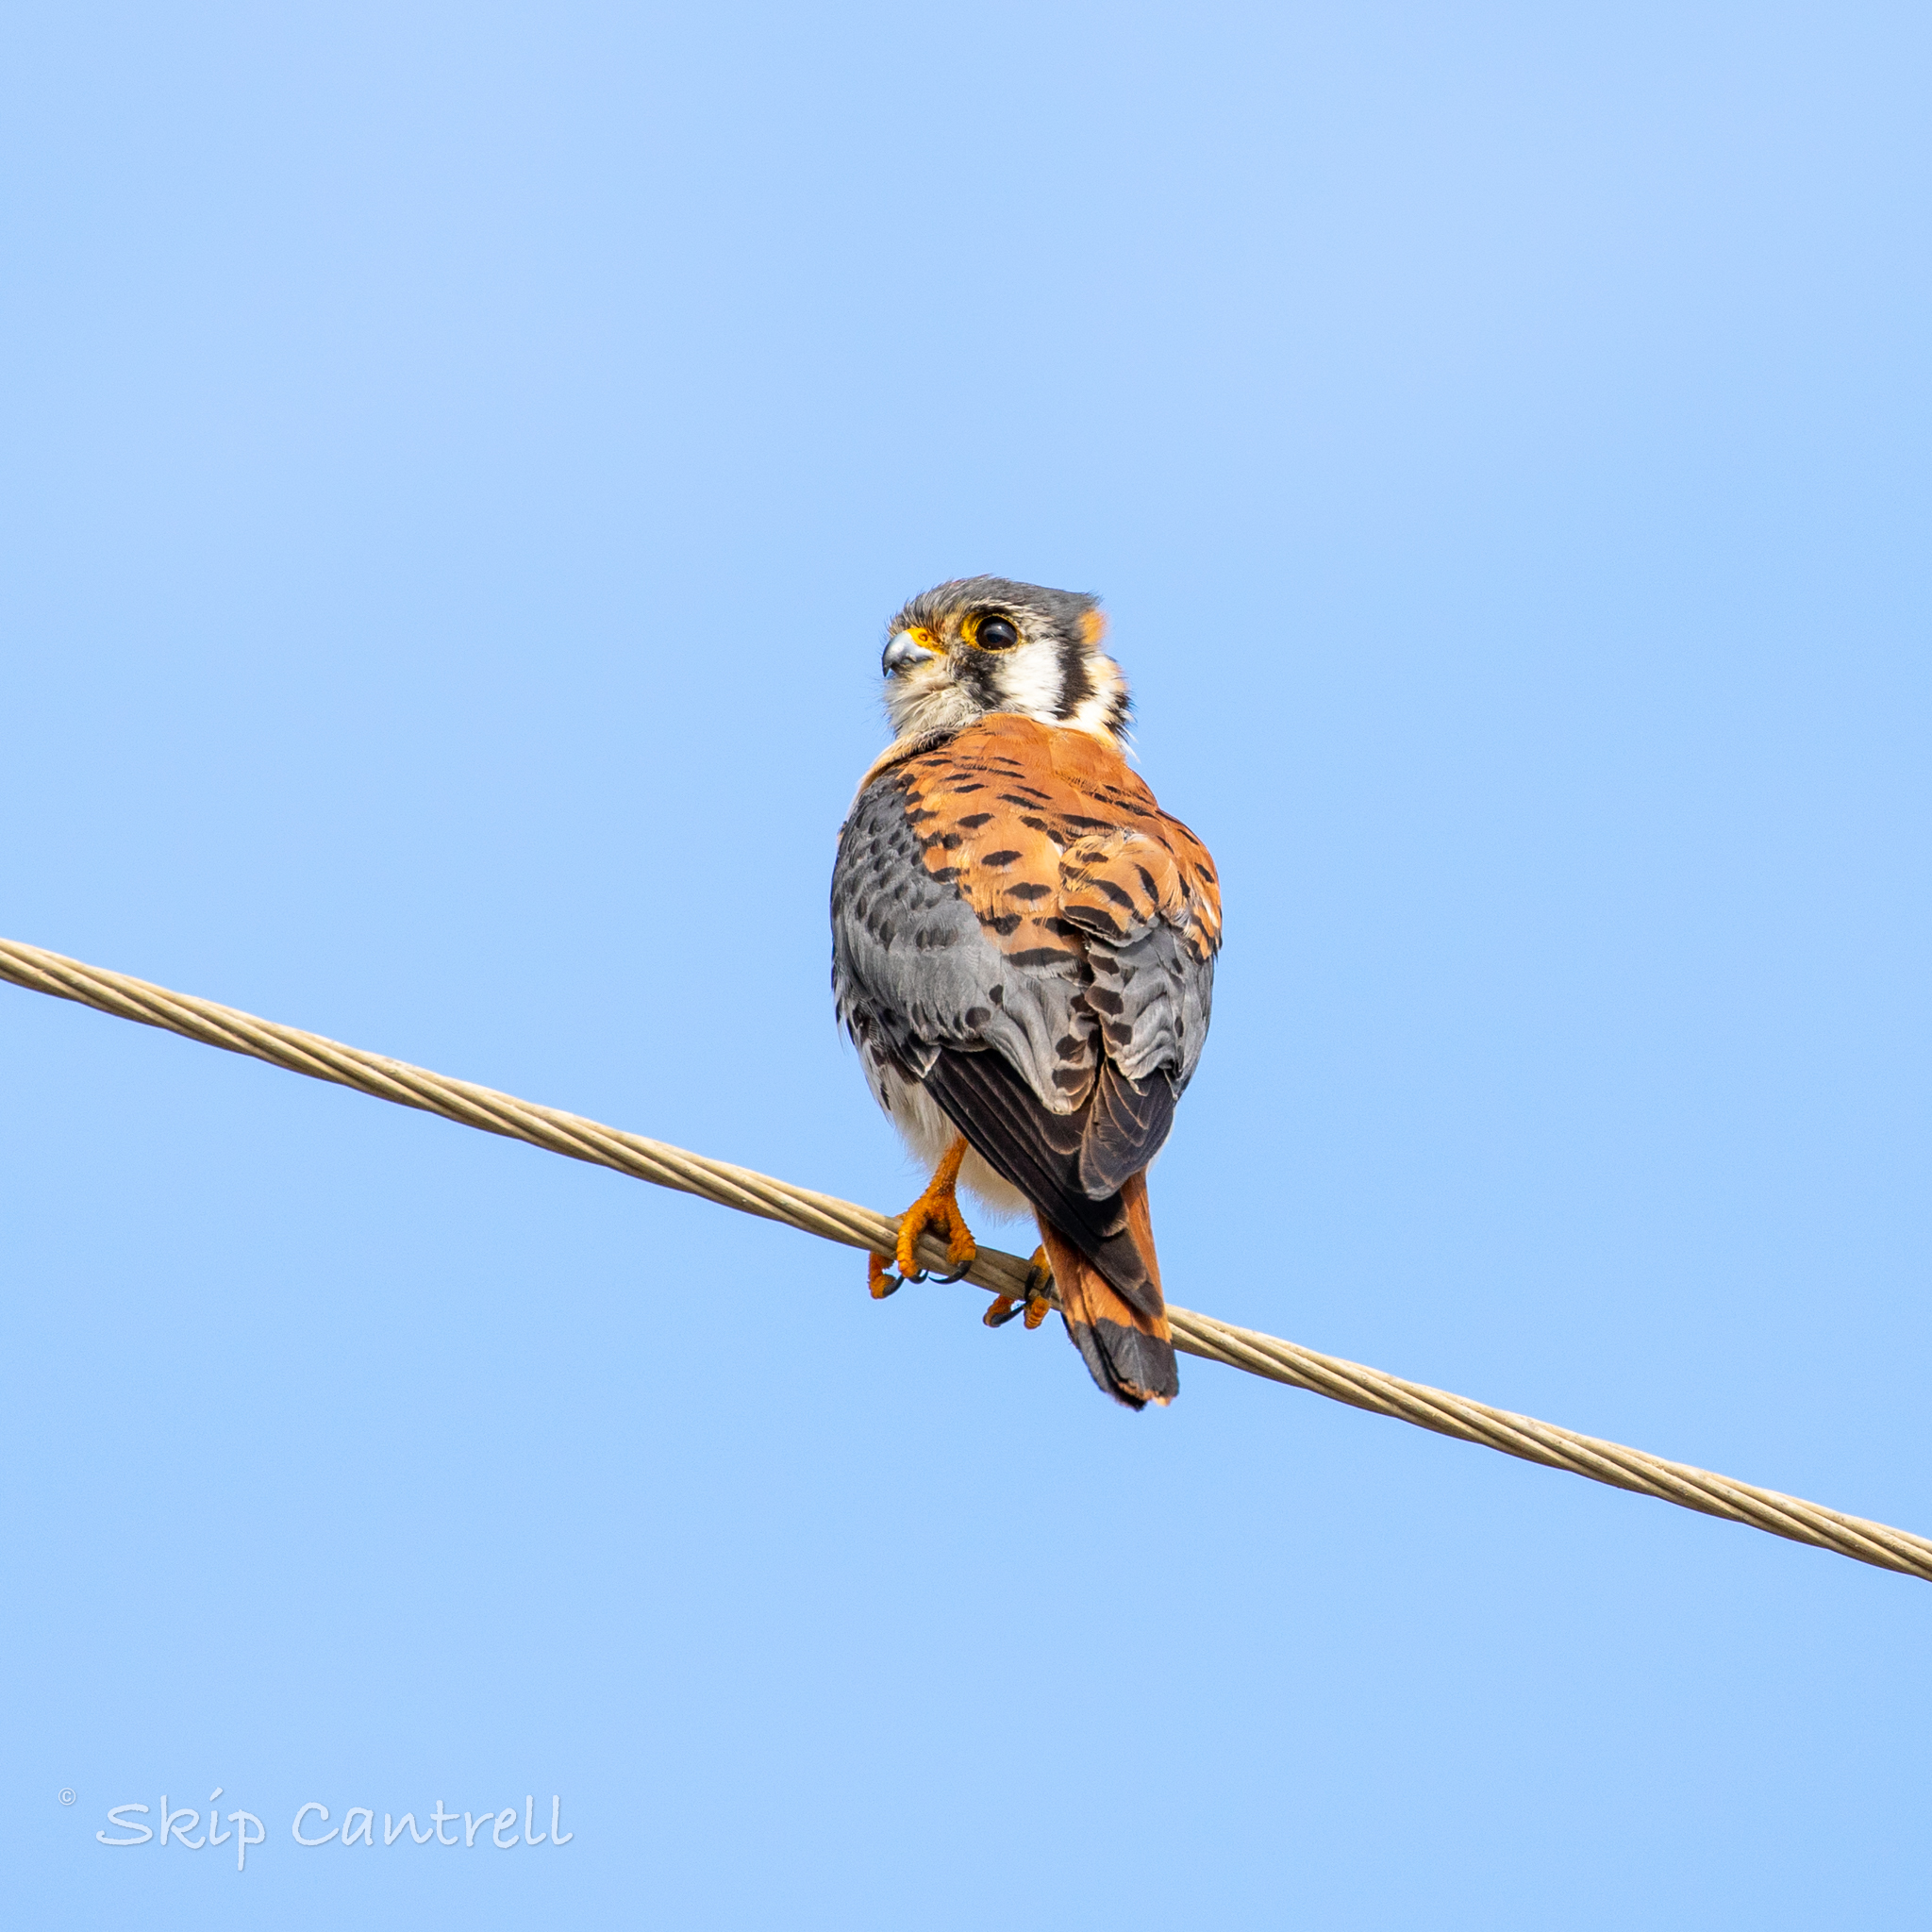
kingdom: Animalia
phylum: Chordata
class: Aves
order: Falconiformes
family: Falconidae
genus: Falco
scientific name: Falco sparverius
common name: American kestrel
